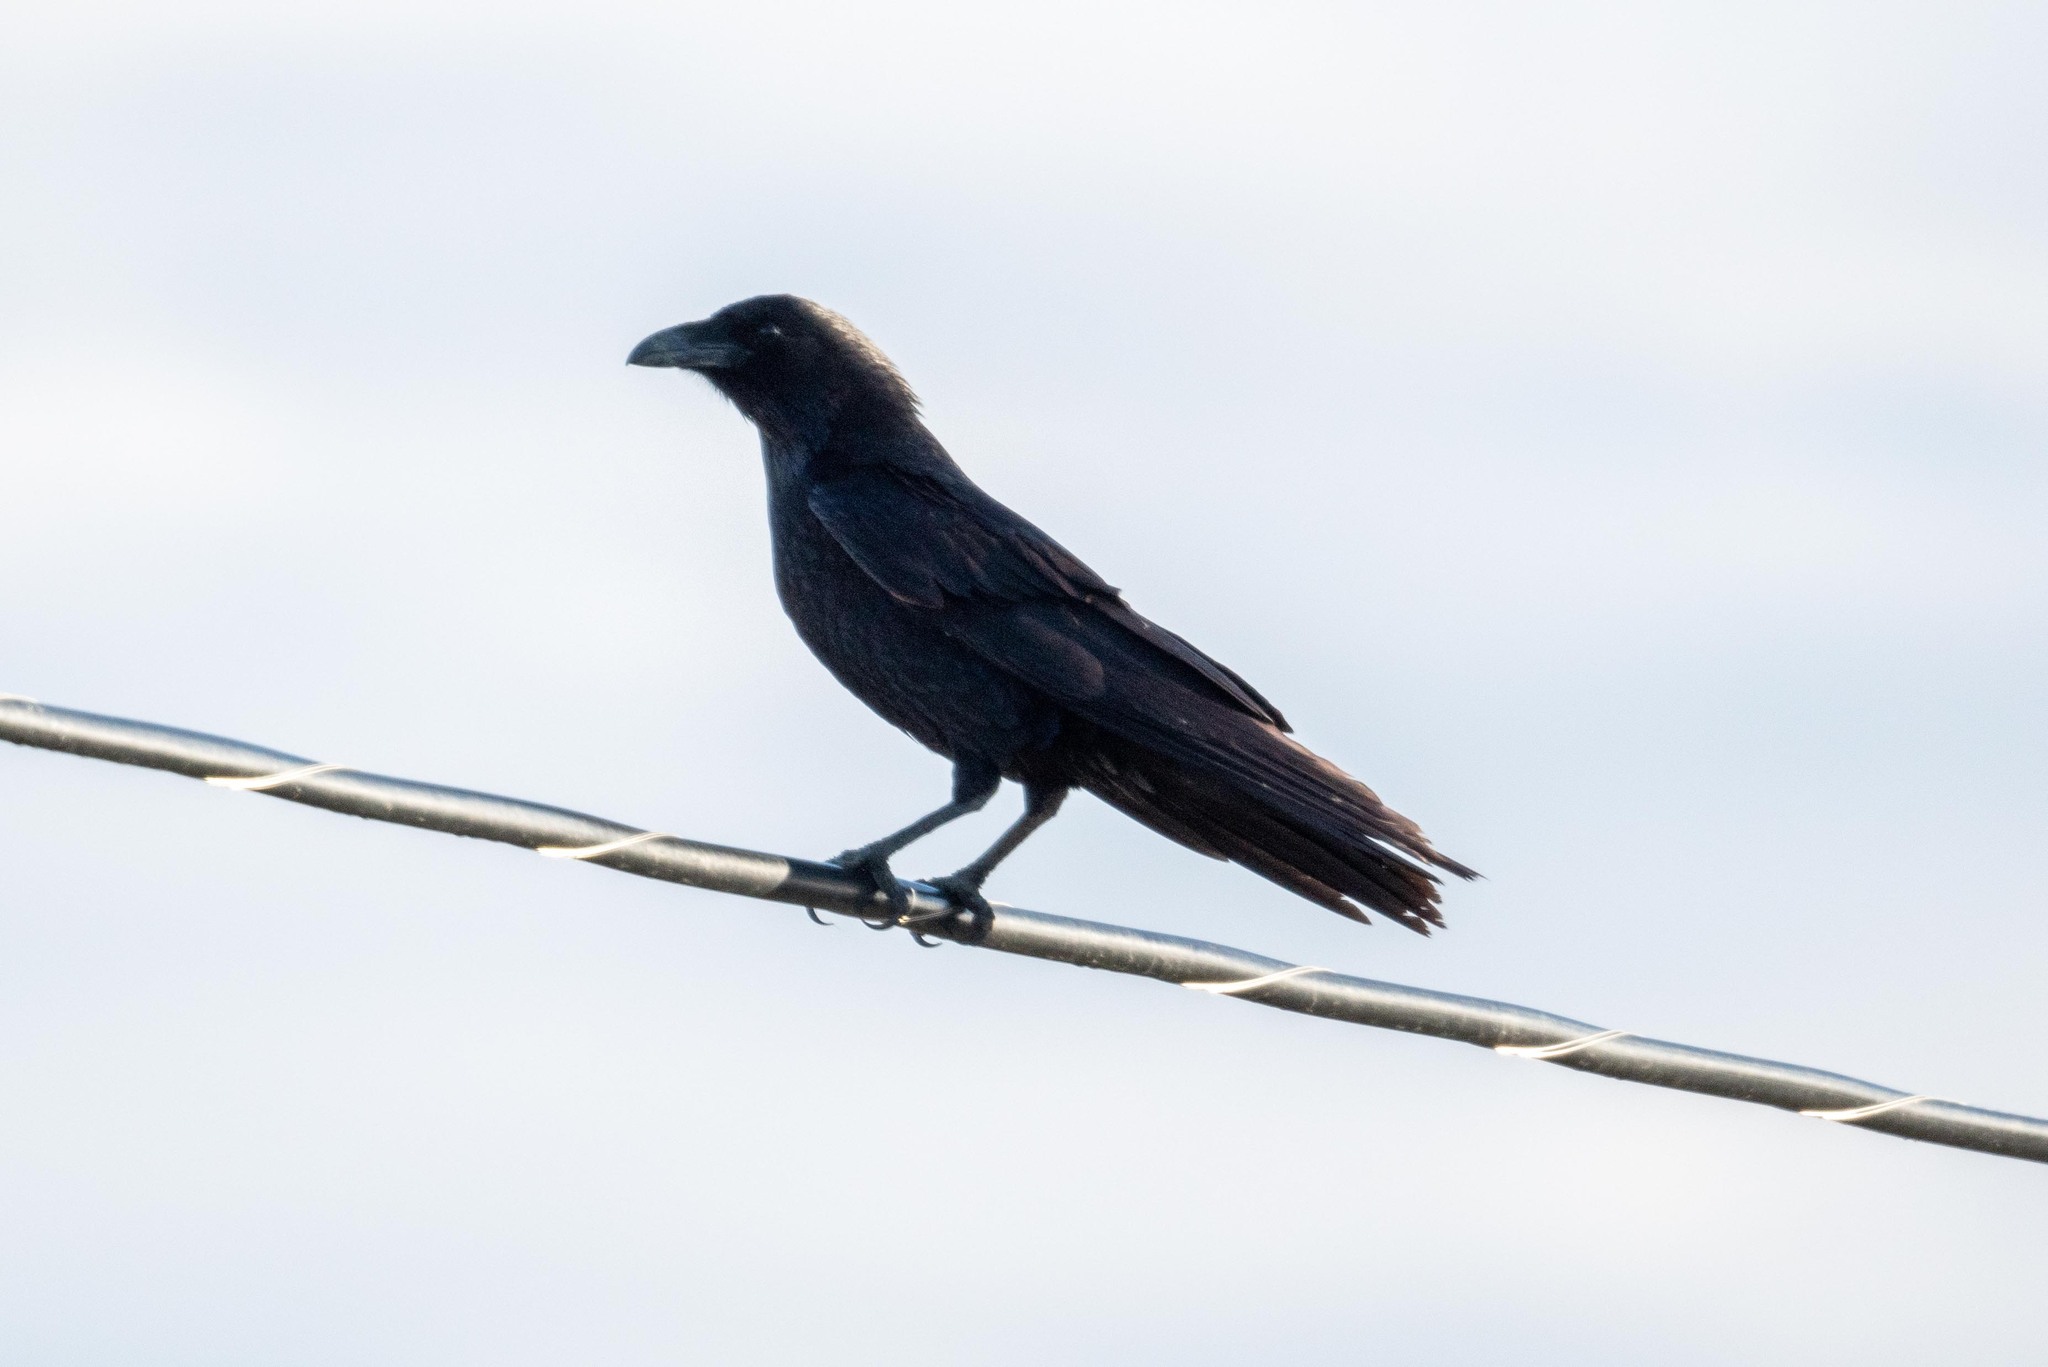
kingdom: Animalia
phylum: Chordata
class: Aves
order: Passeriformes
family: Corvidae
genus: Corvus
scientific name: Corvus corax
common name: Common raven
